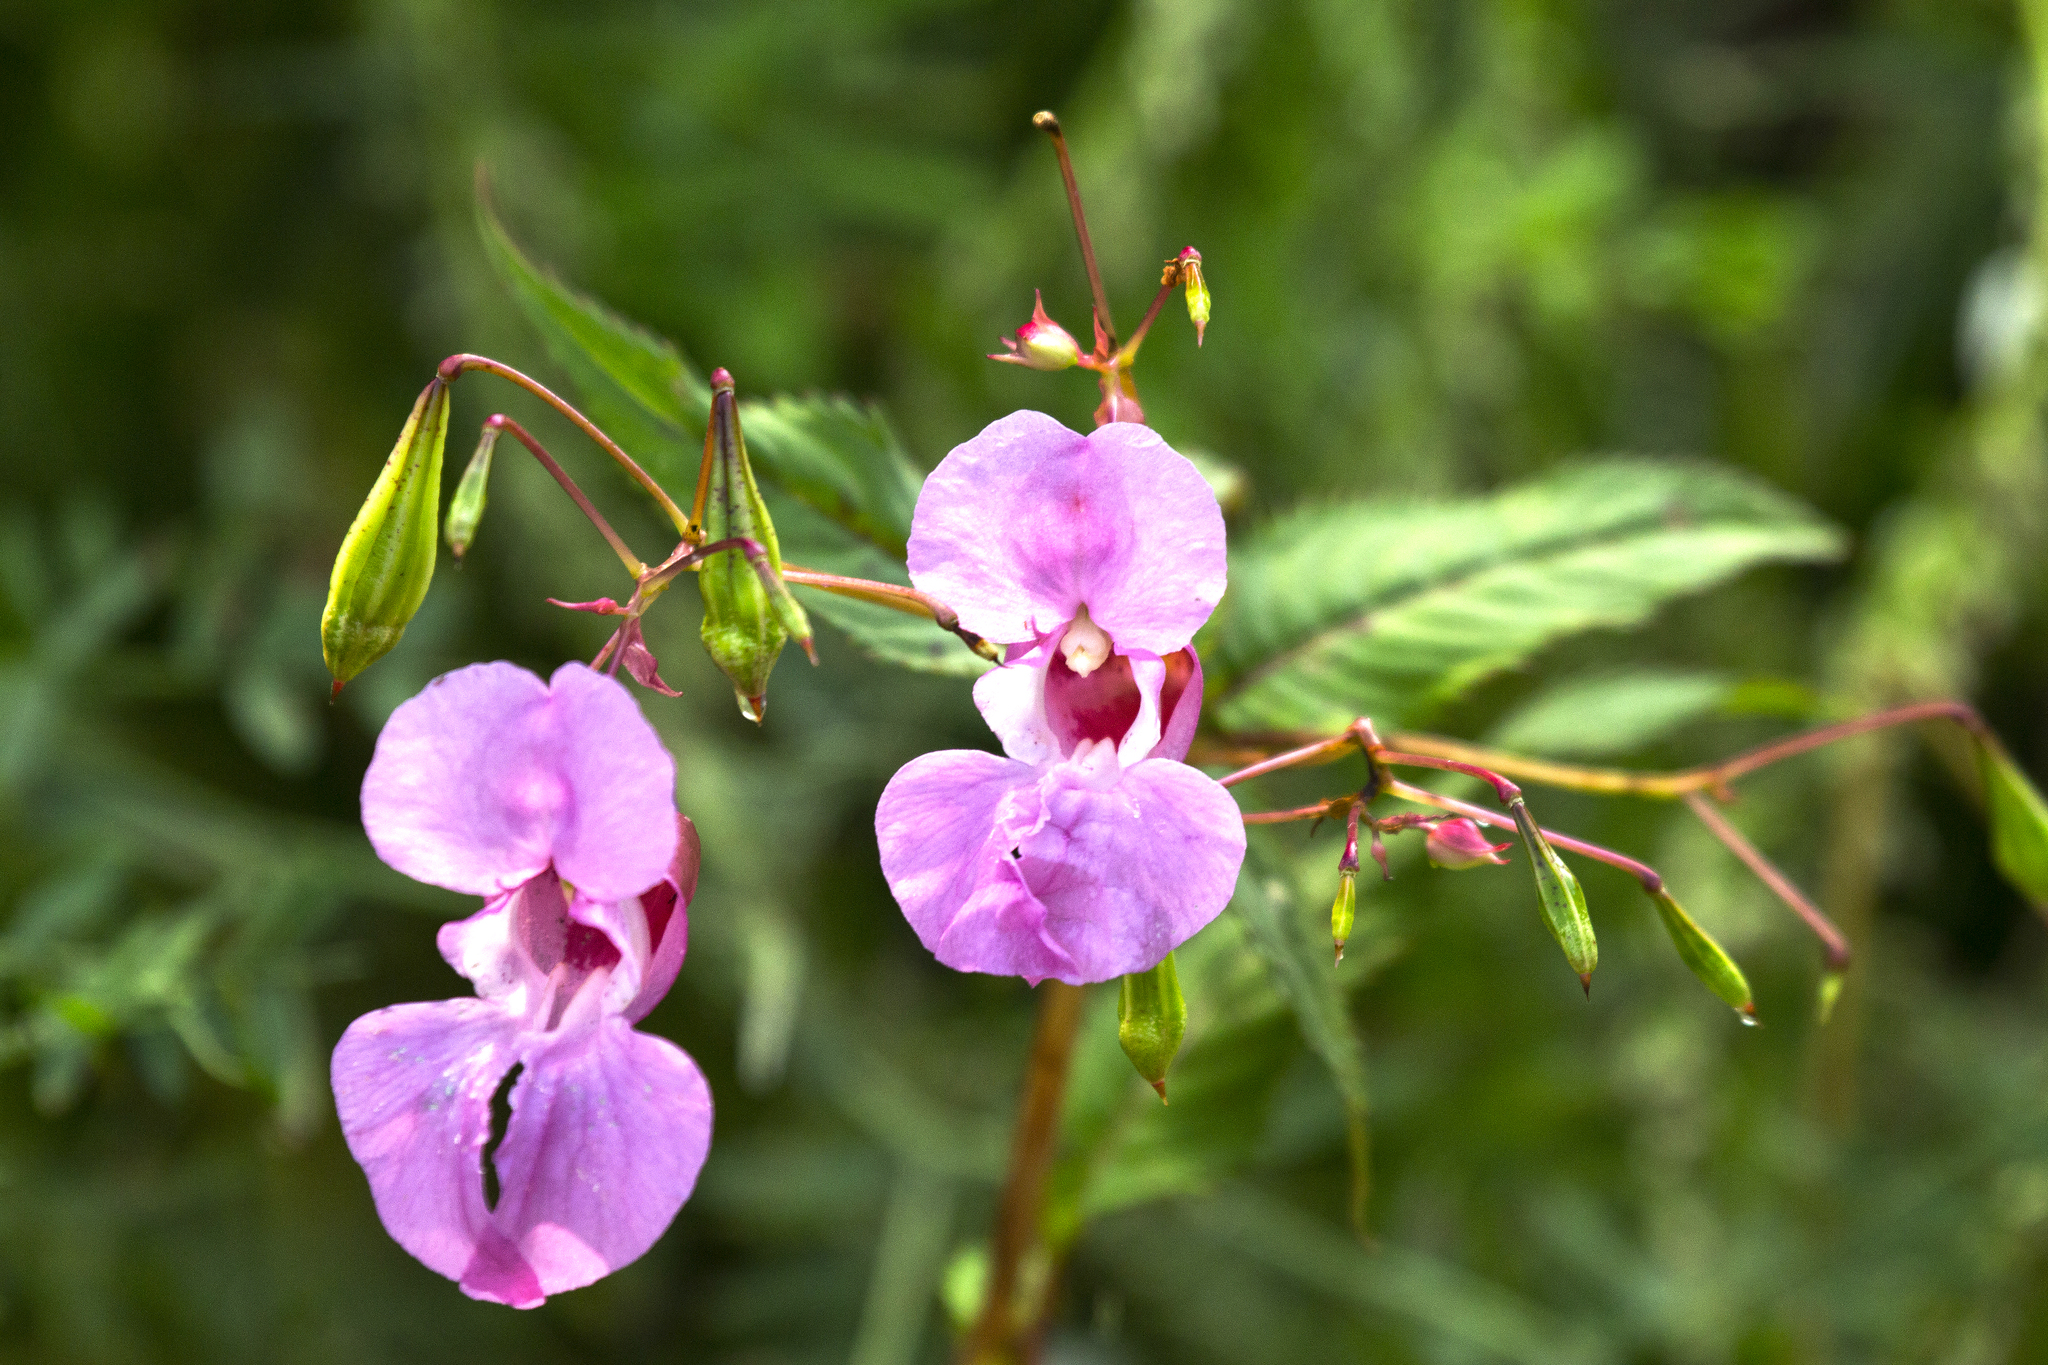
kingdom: Plantae
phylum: Tracheophyta
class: Magnoliopsida
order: Ericales
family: Balsaminaceae
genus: Impatiens
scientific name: Impatiens glandulifera
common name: Himalayan balsam
